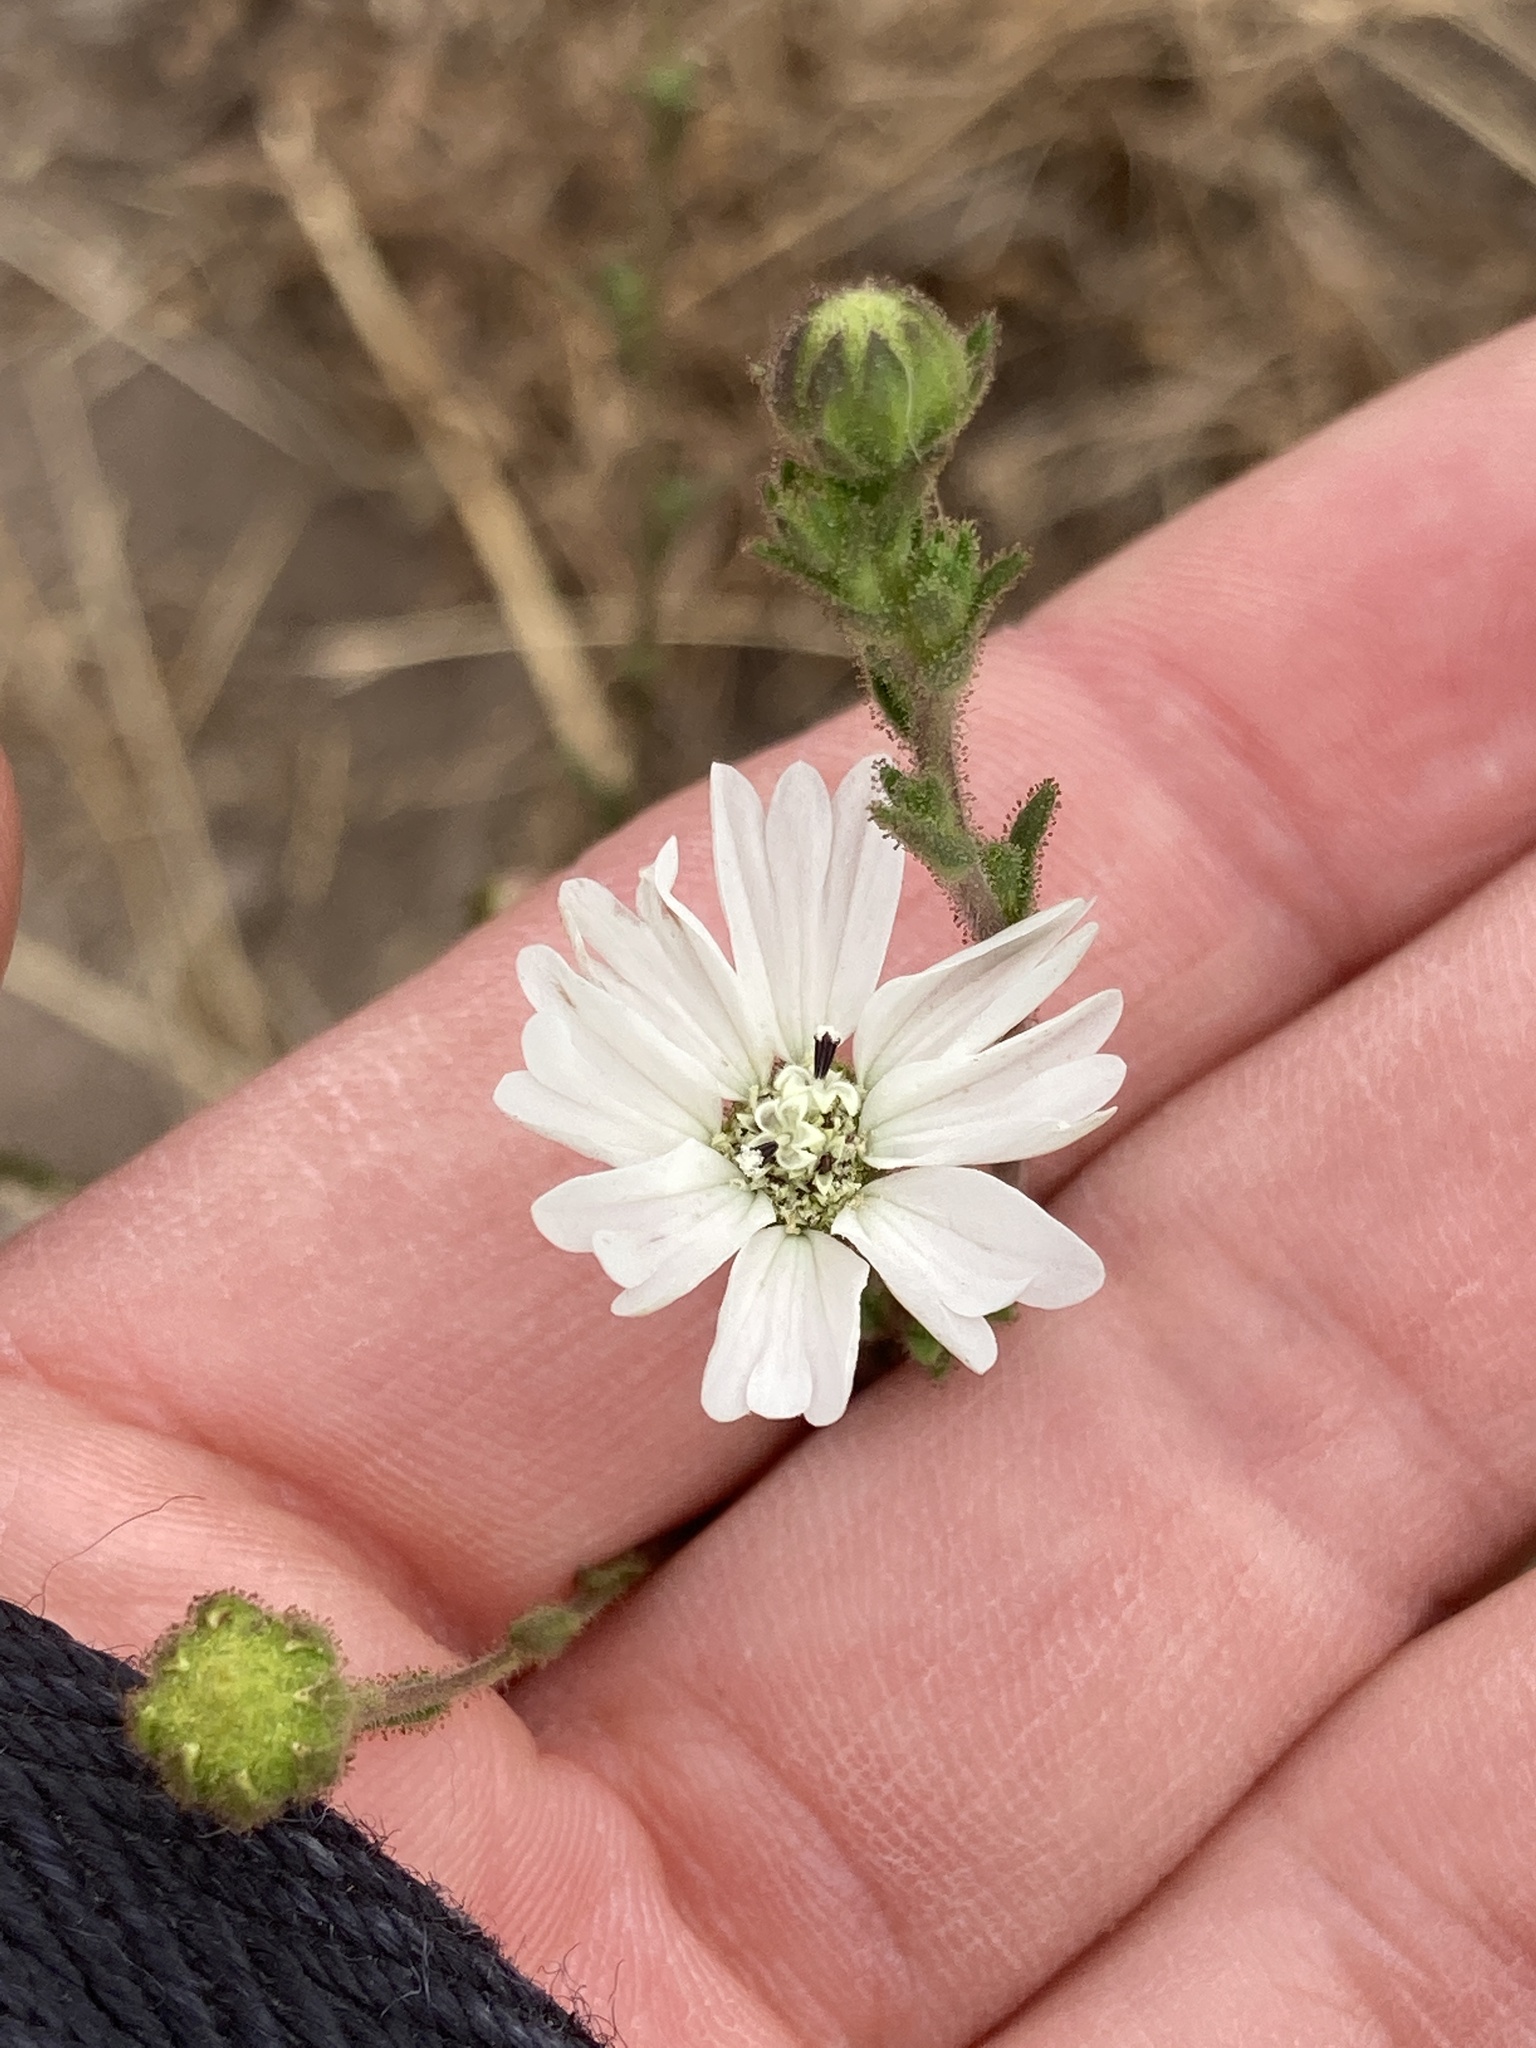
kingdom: Plantae
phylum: Tracheophyta
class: Magnoliopsida
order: Asterales
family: Asteraceae
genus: Hemizonia
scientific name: Hemizonia congesta
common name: Hayfield tarweed
